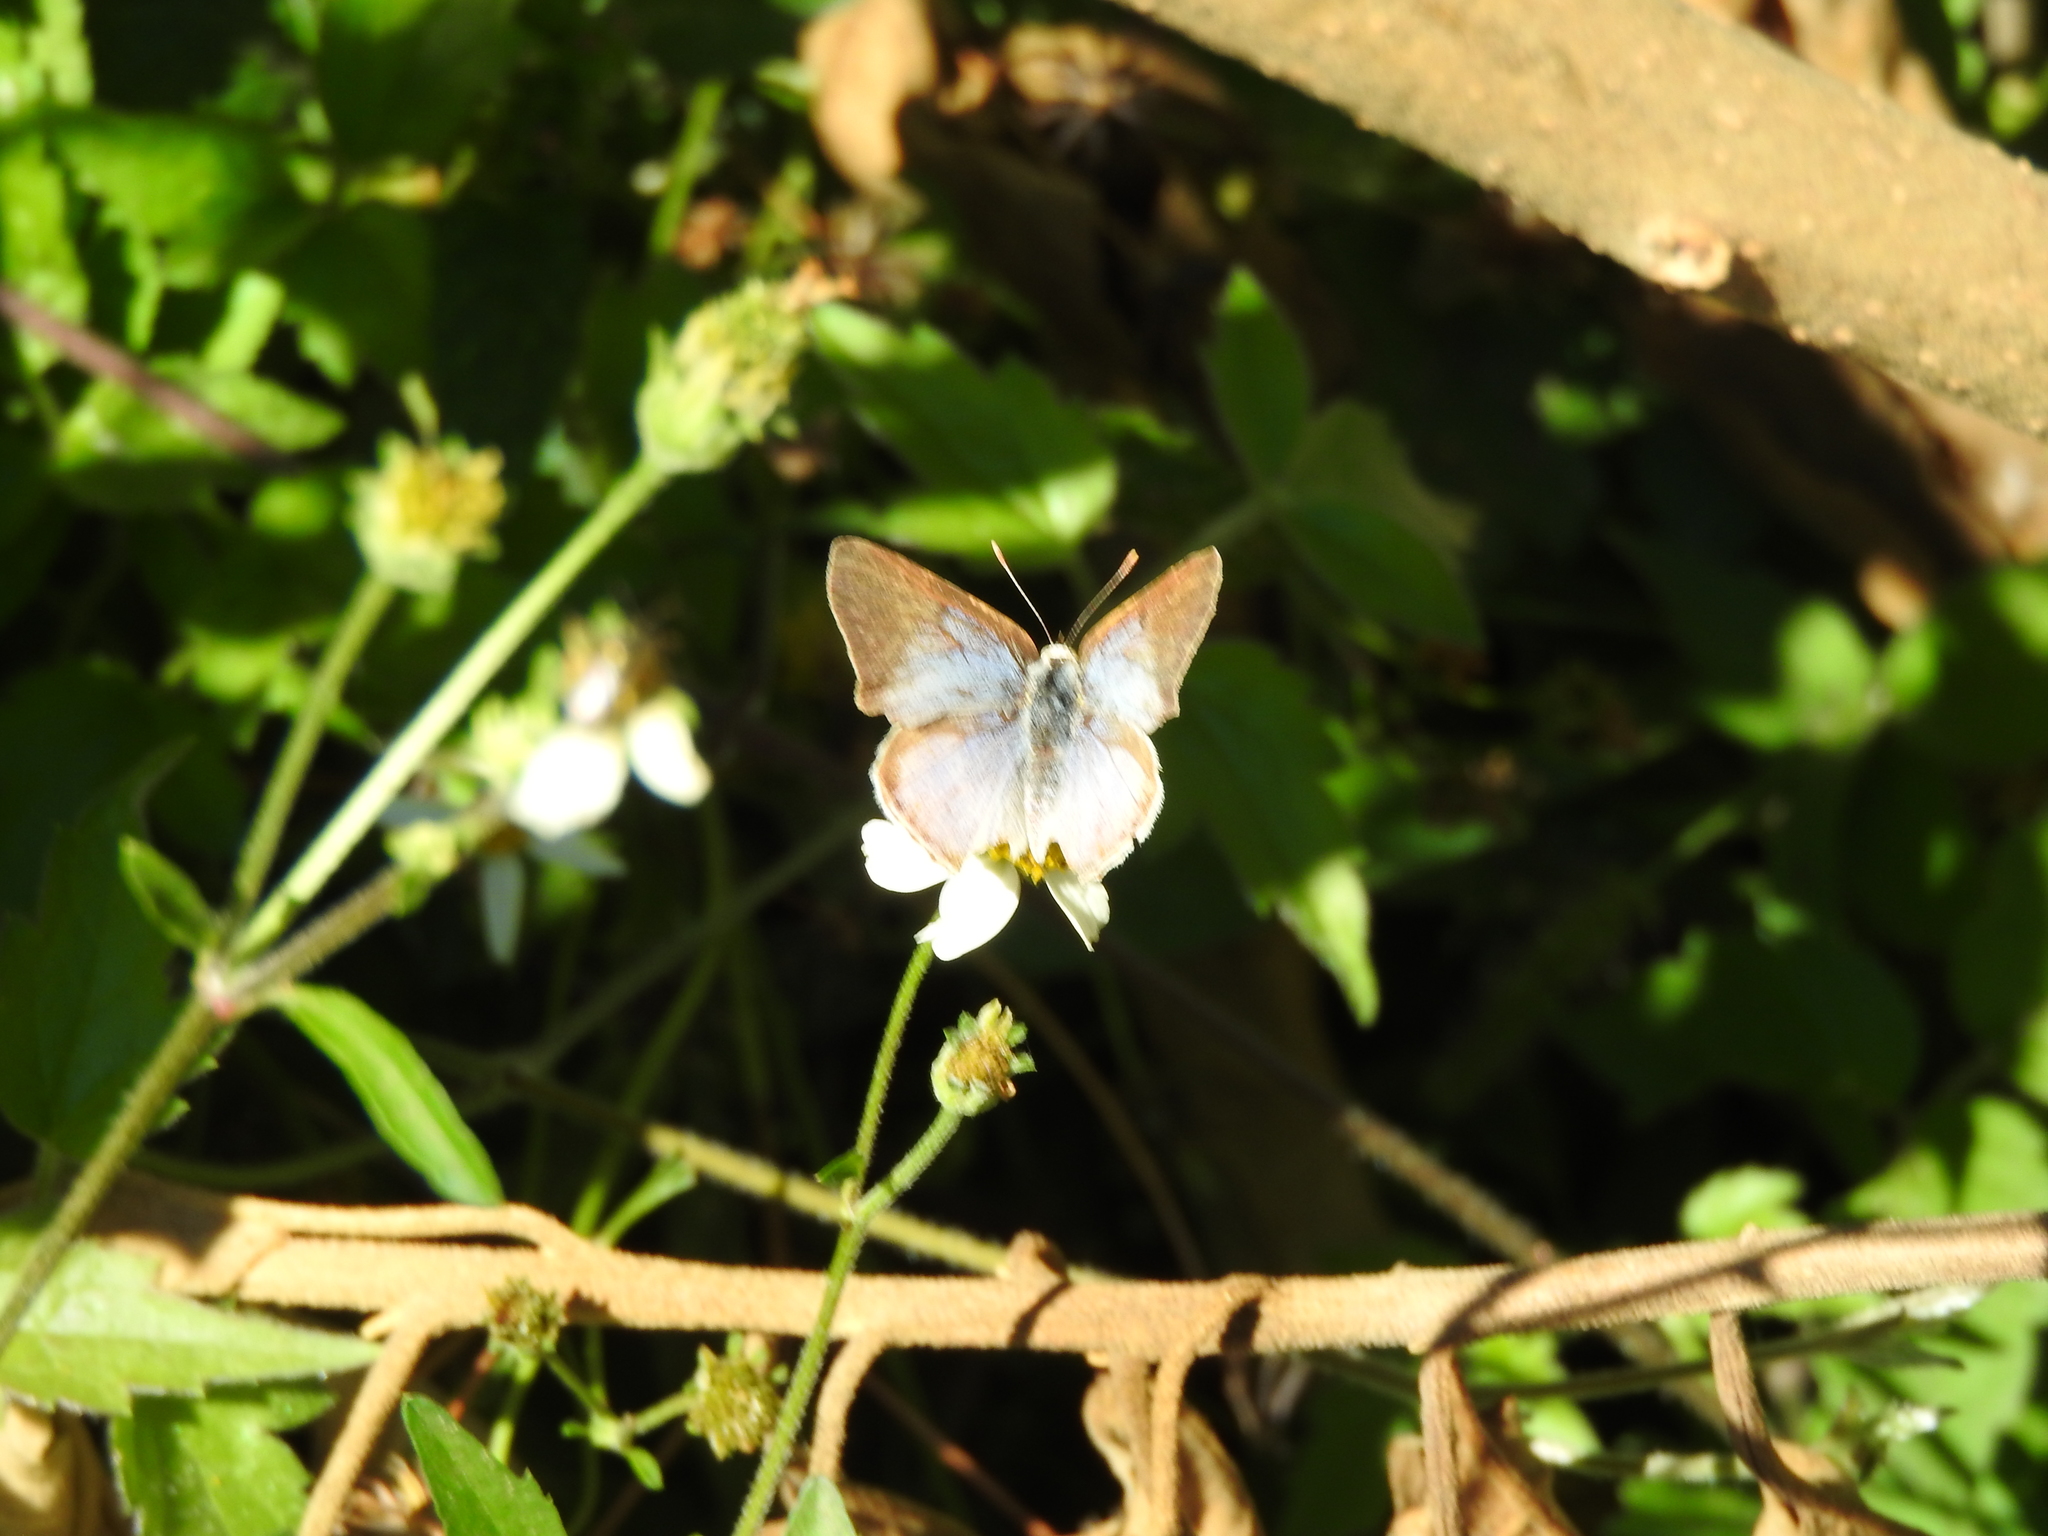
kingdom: Animalia
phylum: Arthropoda
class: Insecta
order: Lepidoptera
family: Lycaenidae
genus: Dolymorpha
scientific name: Dolymorpha jada
